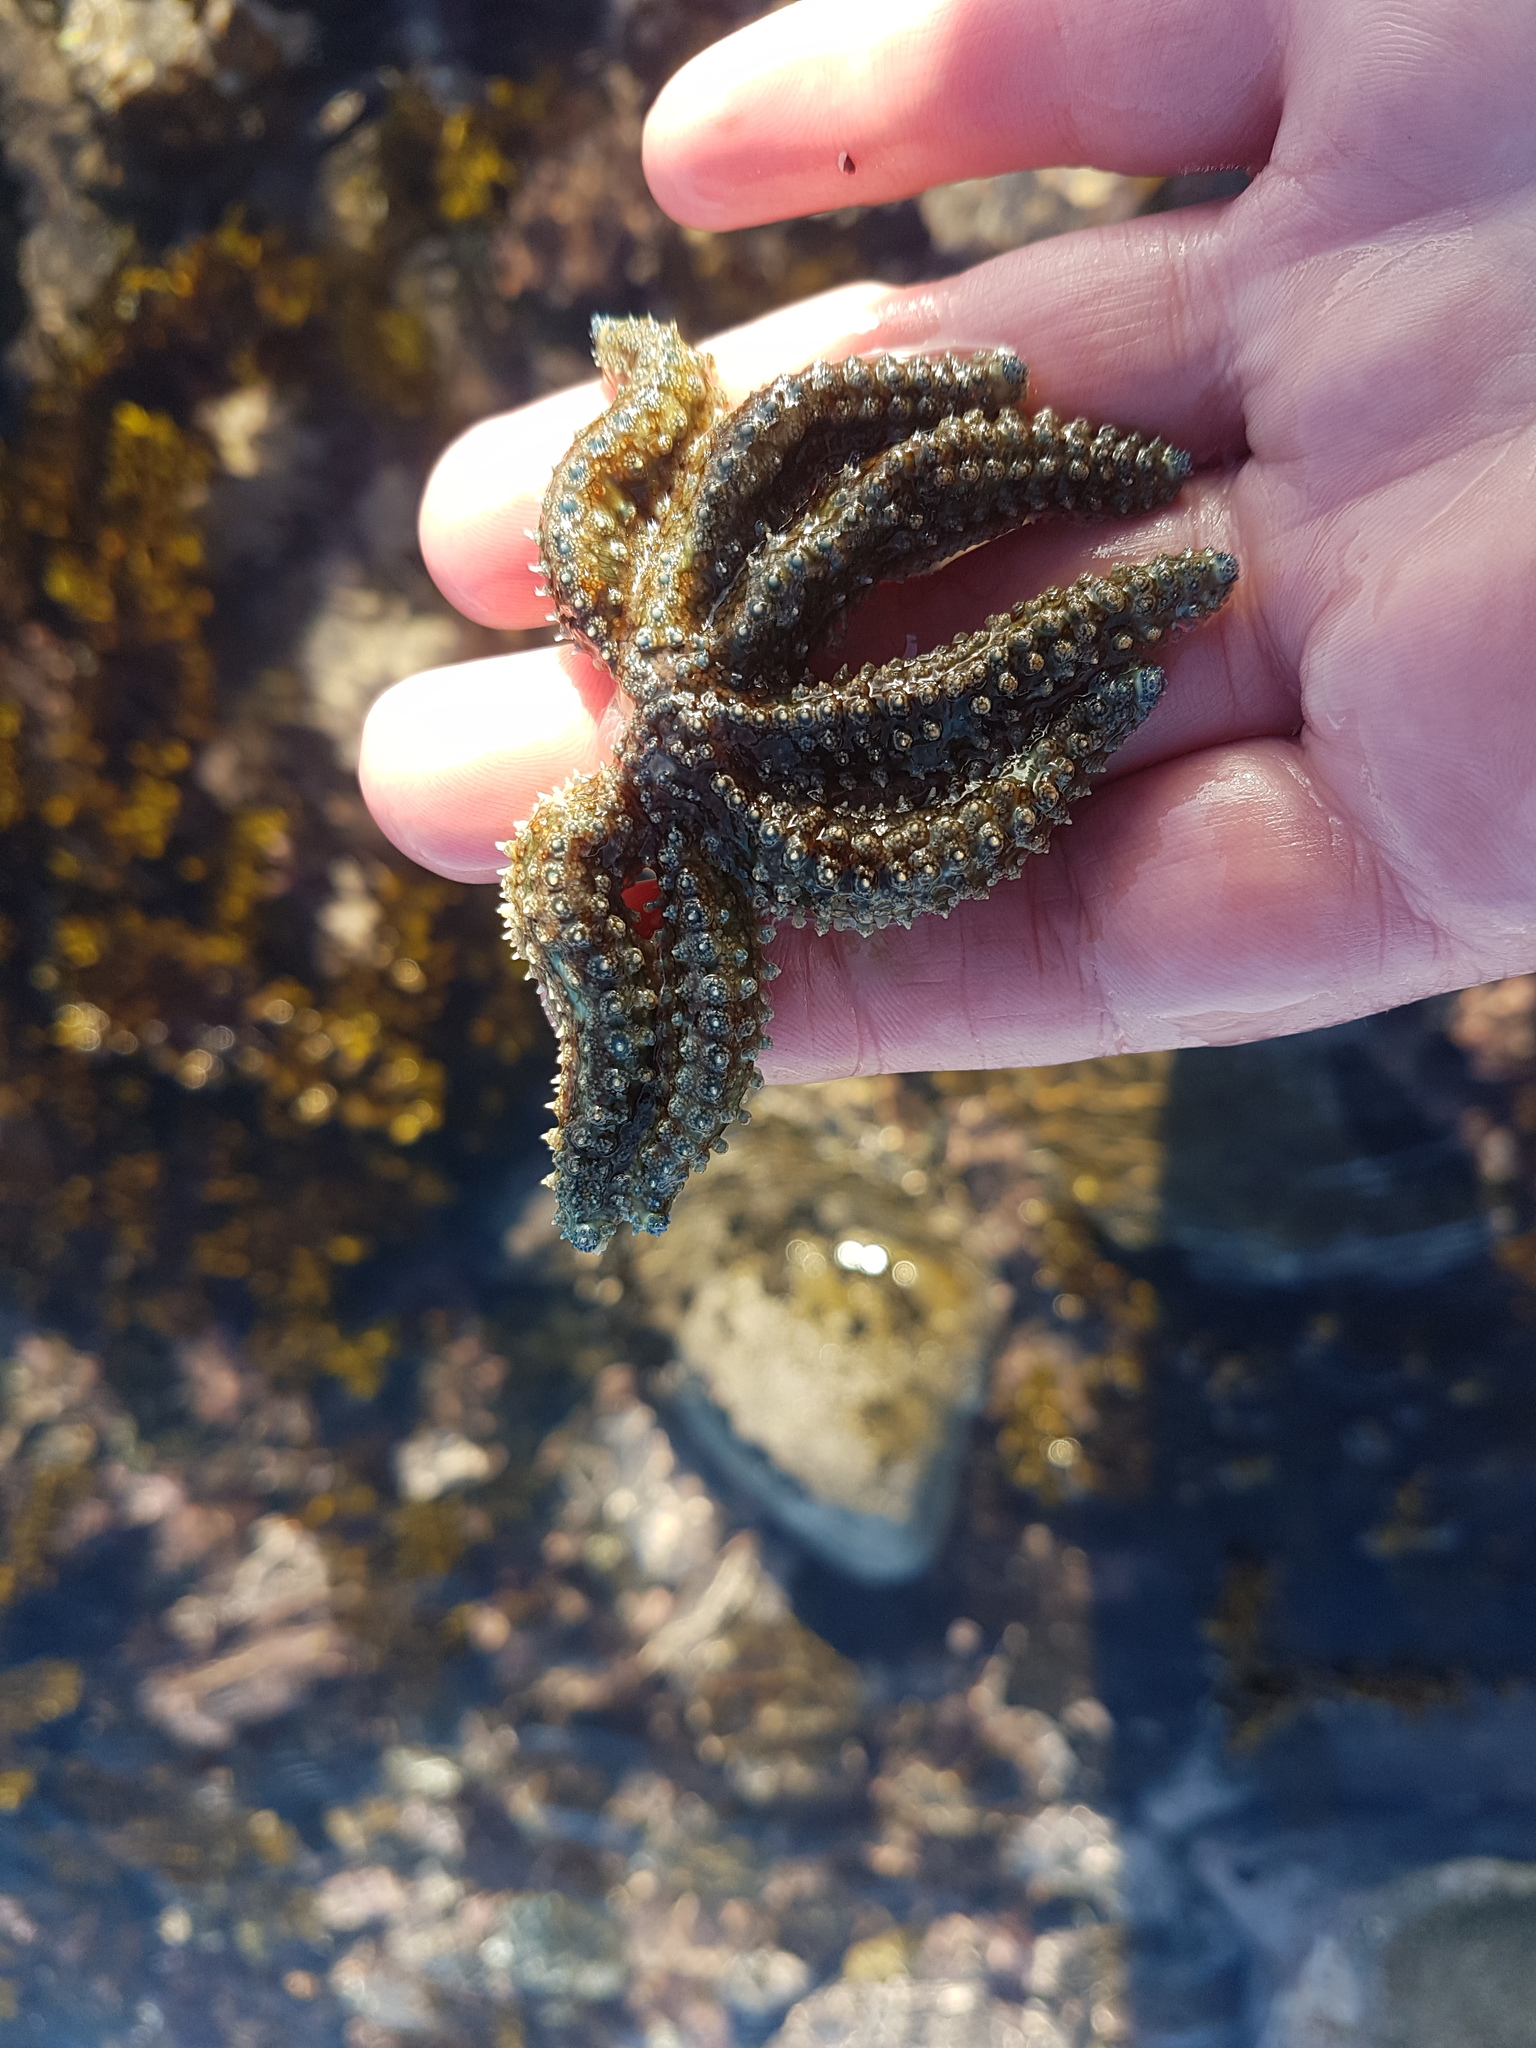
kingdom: Animalia
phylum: Echinodermata
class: Asteroidea
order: Forcipulatida
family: Asteriidae
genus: Coscinasterias
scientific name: Coscinasterias muricata
